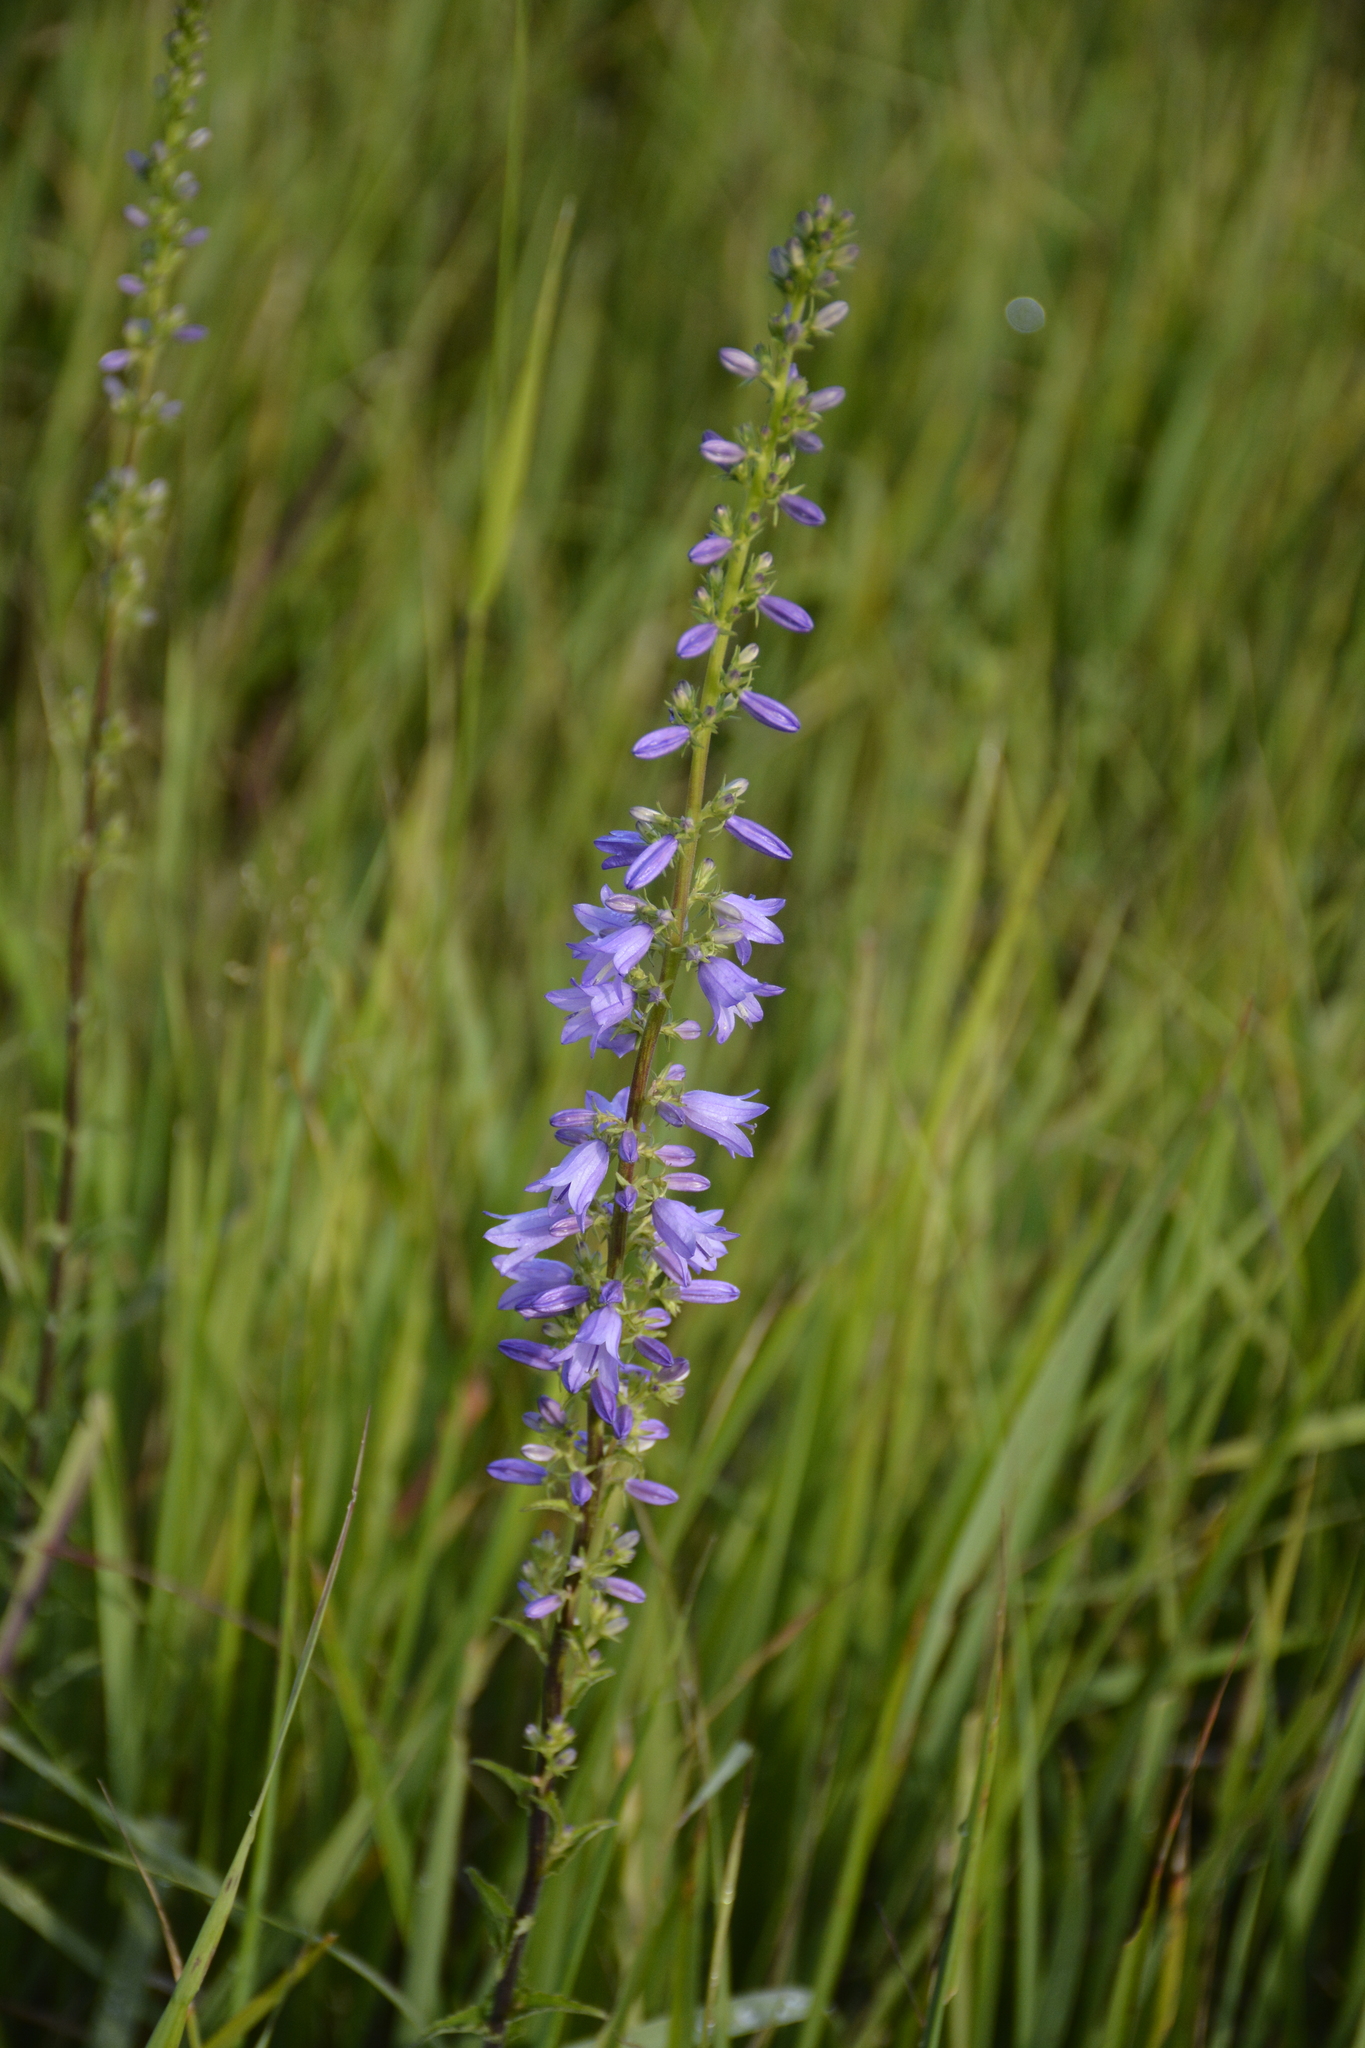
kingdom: Plantae
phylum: Tracheophyta
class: Magnoliopsida
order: Asterales
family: Campanulaceae
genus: Campanula
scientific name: Campanula bononiensis
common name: Pale bellflower
